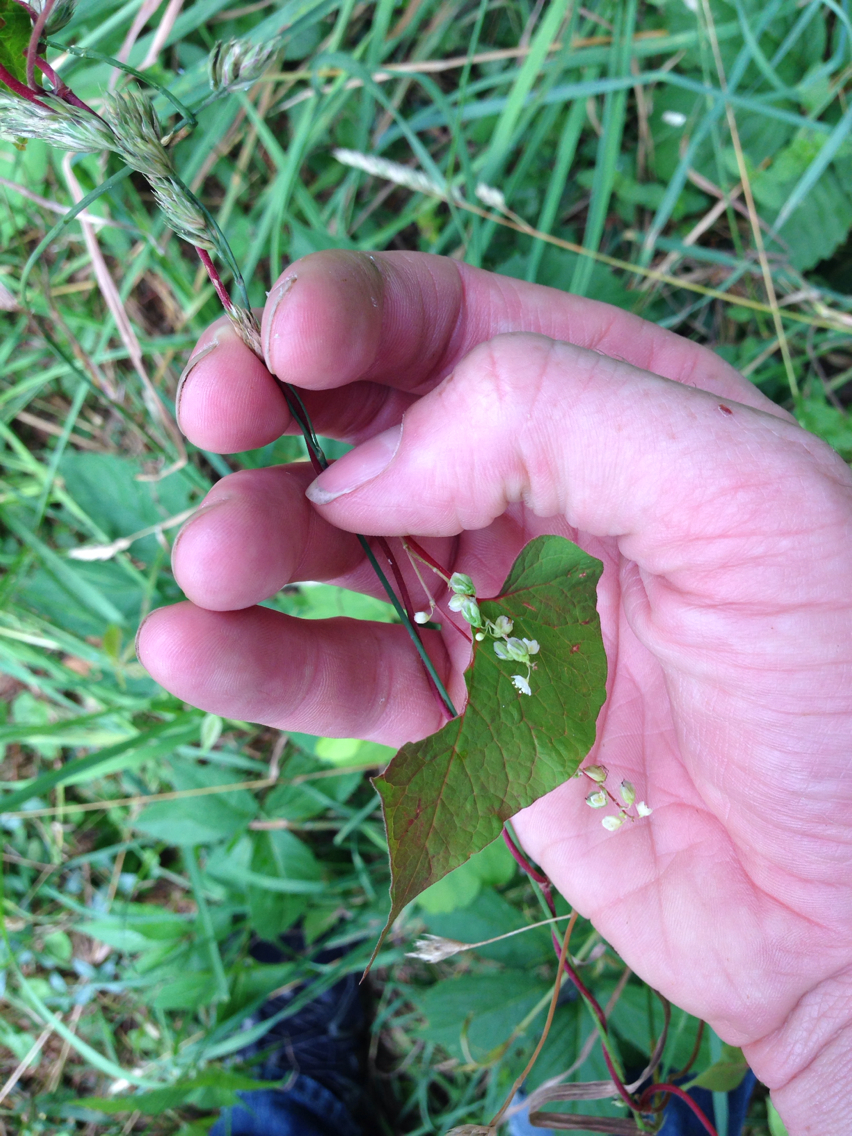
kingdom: Plantae
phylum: Tracheophyta
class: Magnoliopsida
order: Caryophyllales
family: Polygonaceae
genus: Fallopia
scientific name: Fallopia scandens
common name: Climbing false buckwheat
